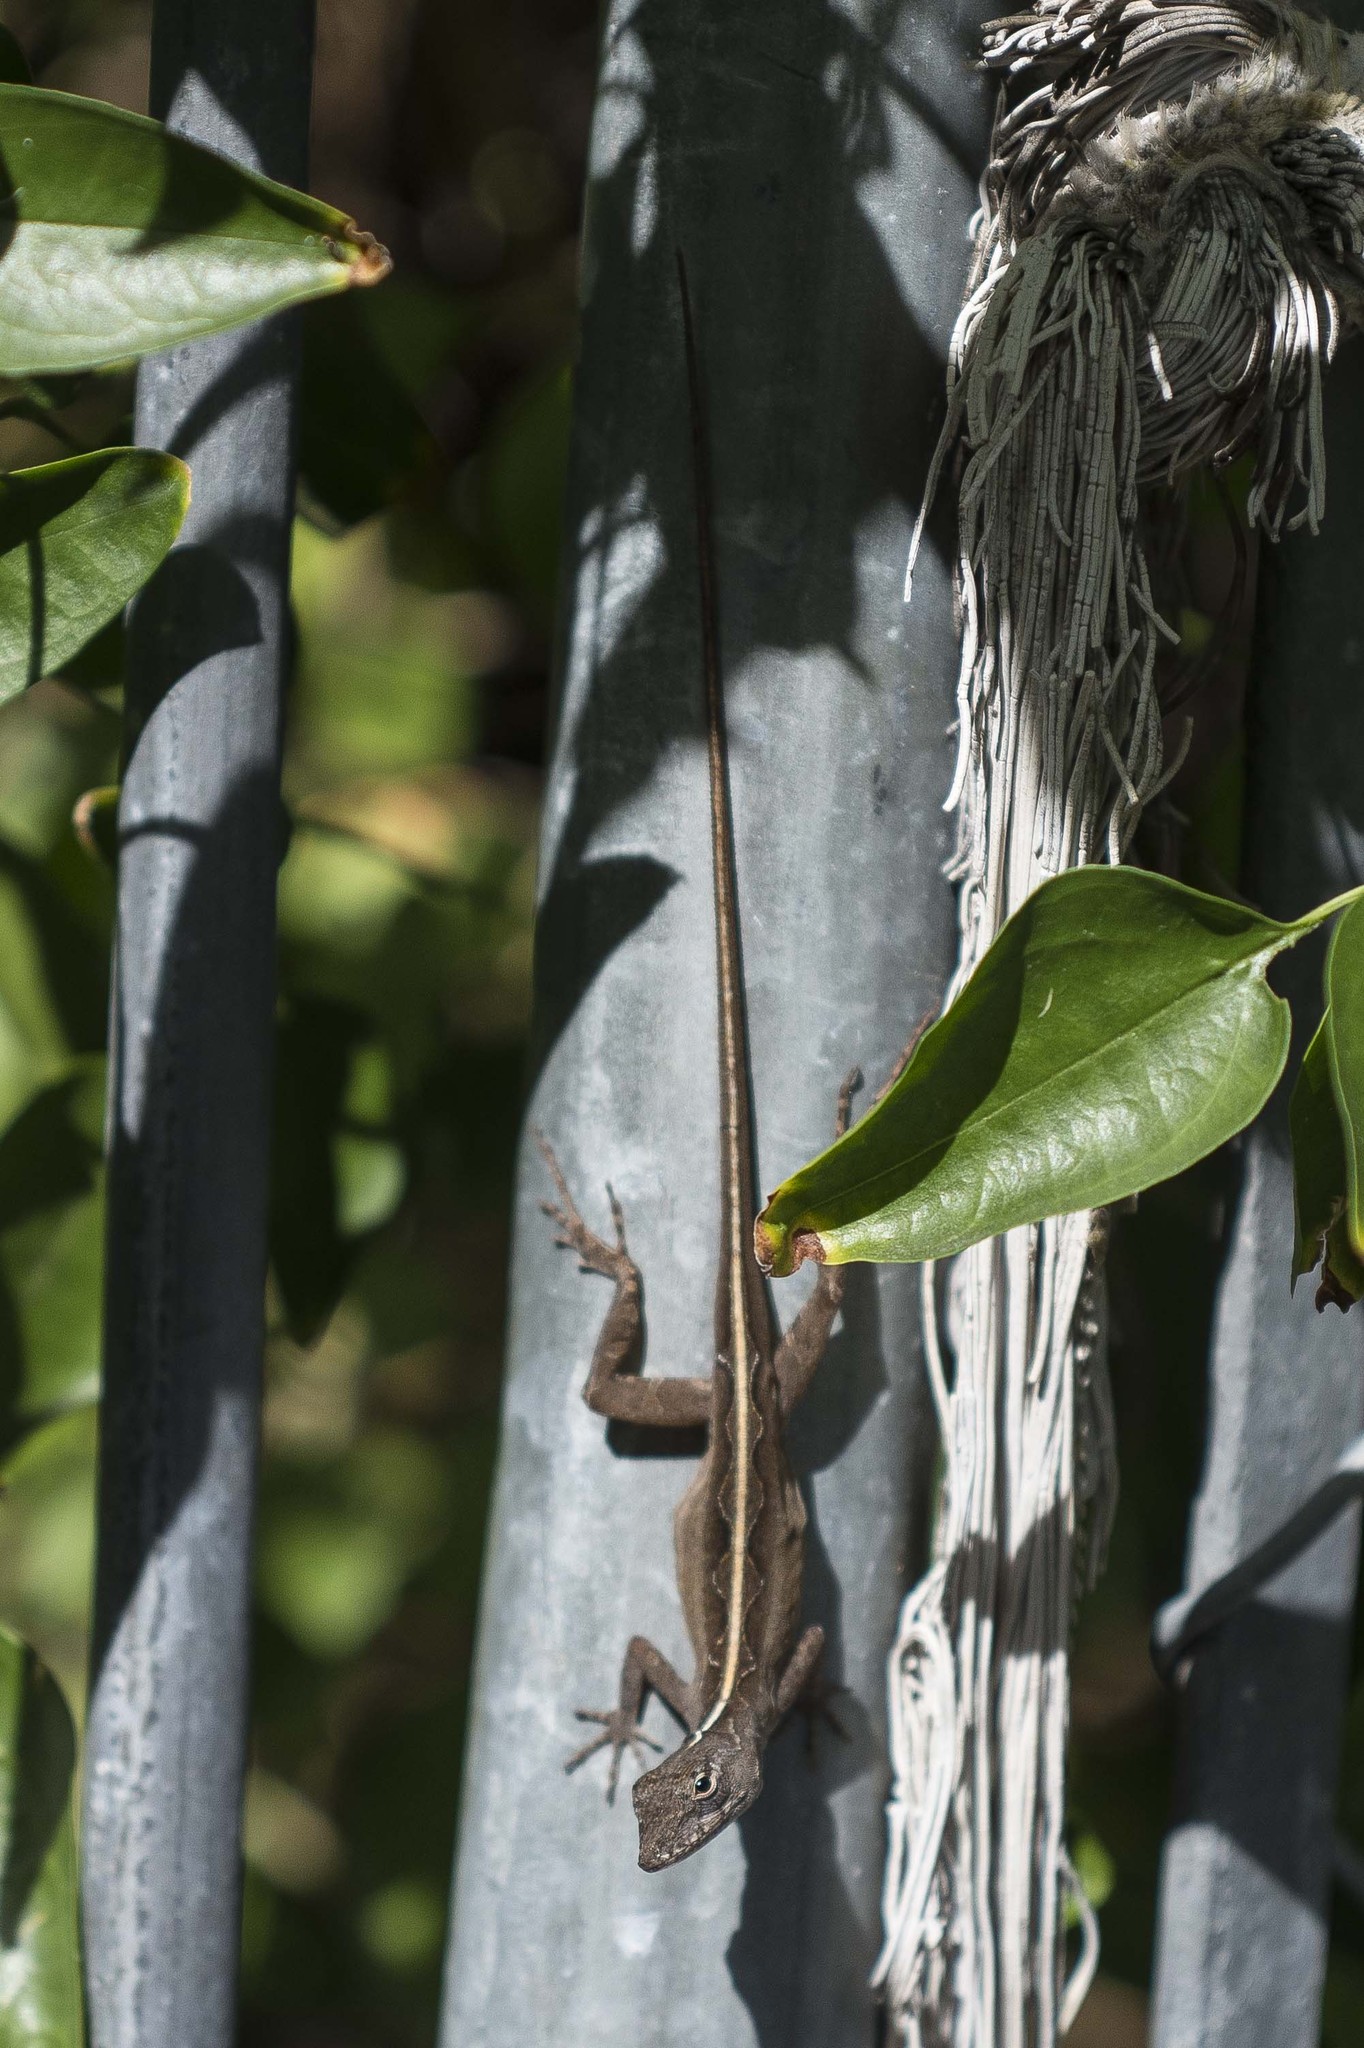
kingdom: Animalia
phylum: Chordata
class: Squamata
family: Dactyloidae
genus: Anolis
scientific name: Anolis sagrei
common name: Brown anole
